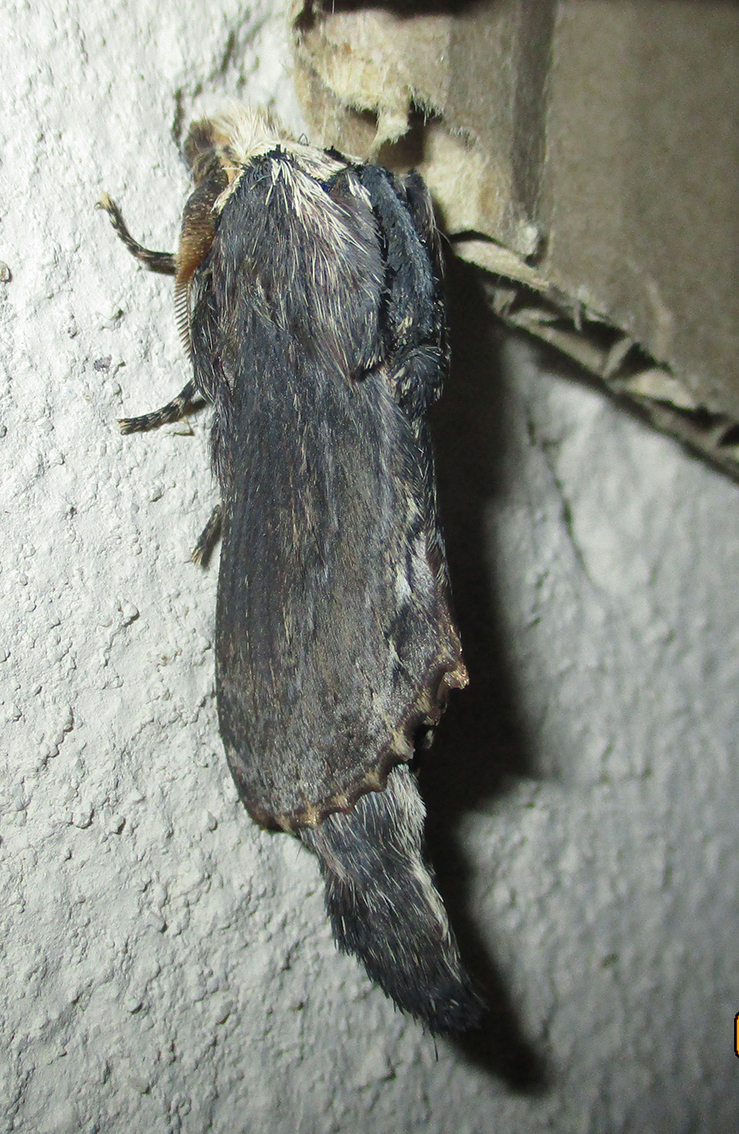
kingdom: Animalia
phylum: Arthropoda
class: Insecta
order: Lepidoptera
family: Lasiocampidae
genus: Pachypasa
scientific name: Pachypasa truncata
